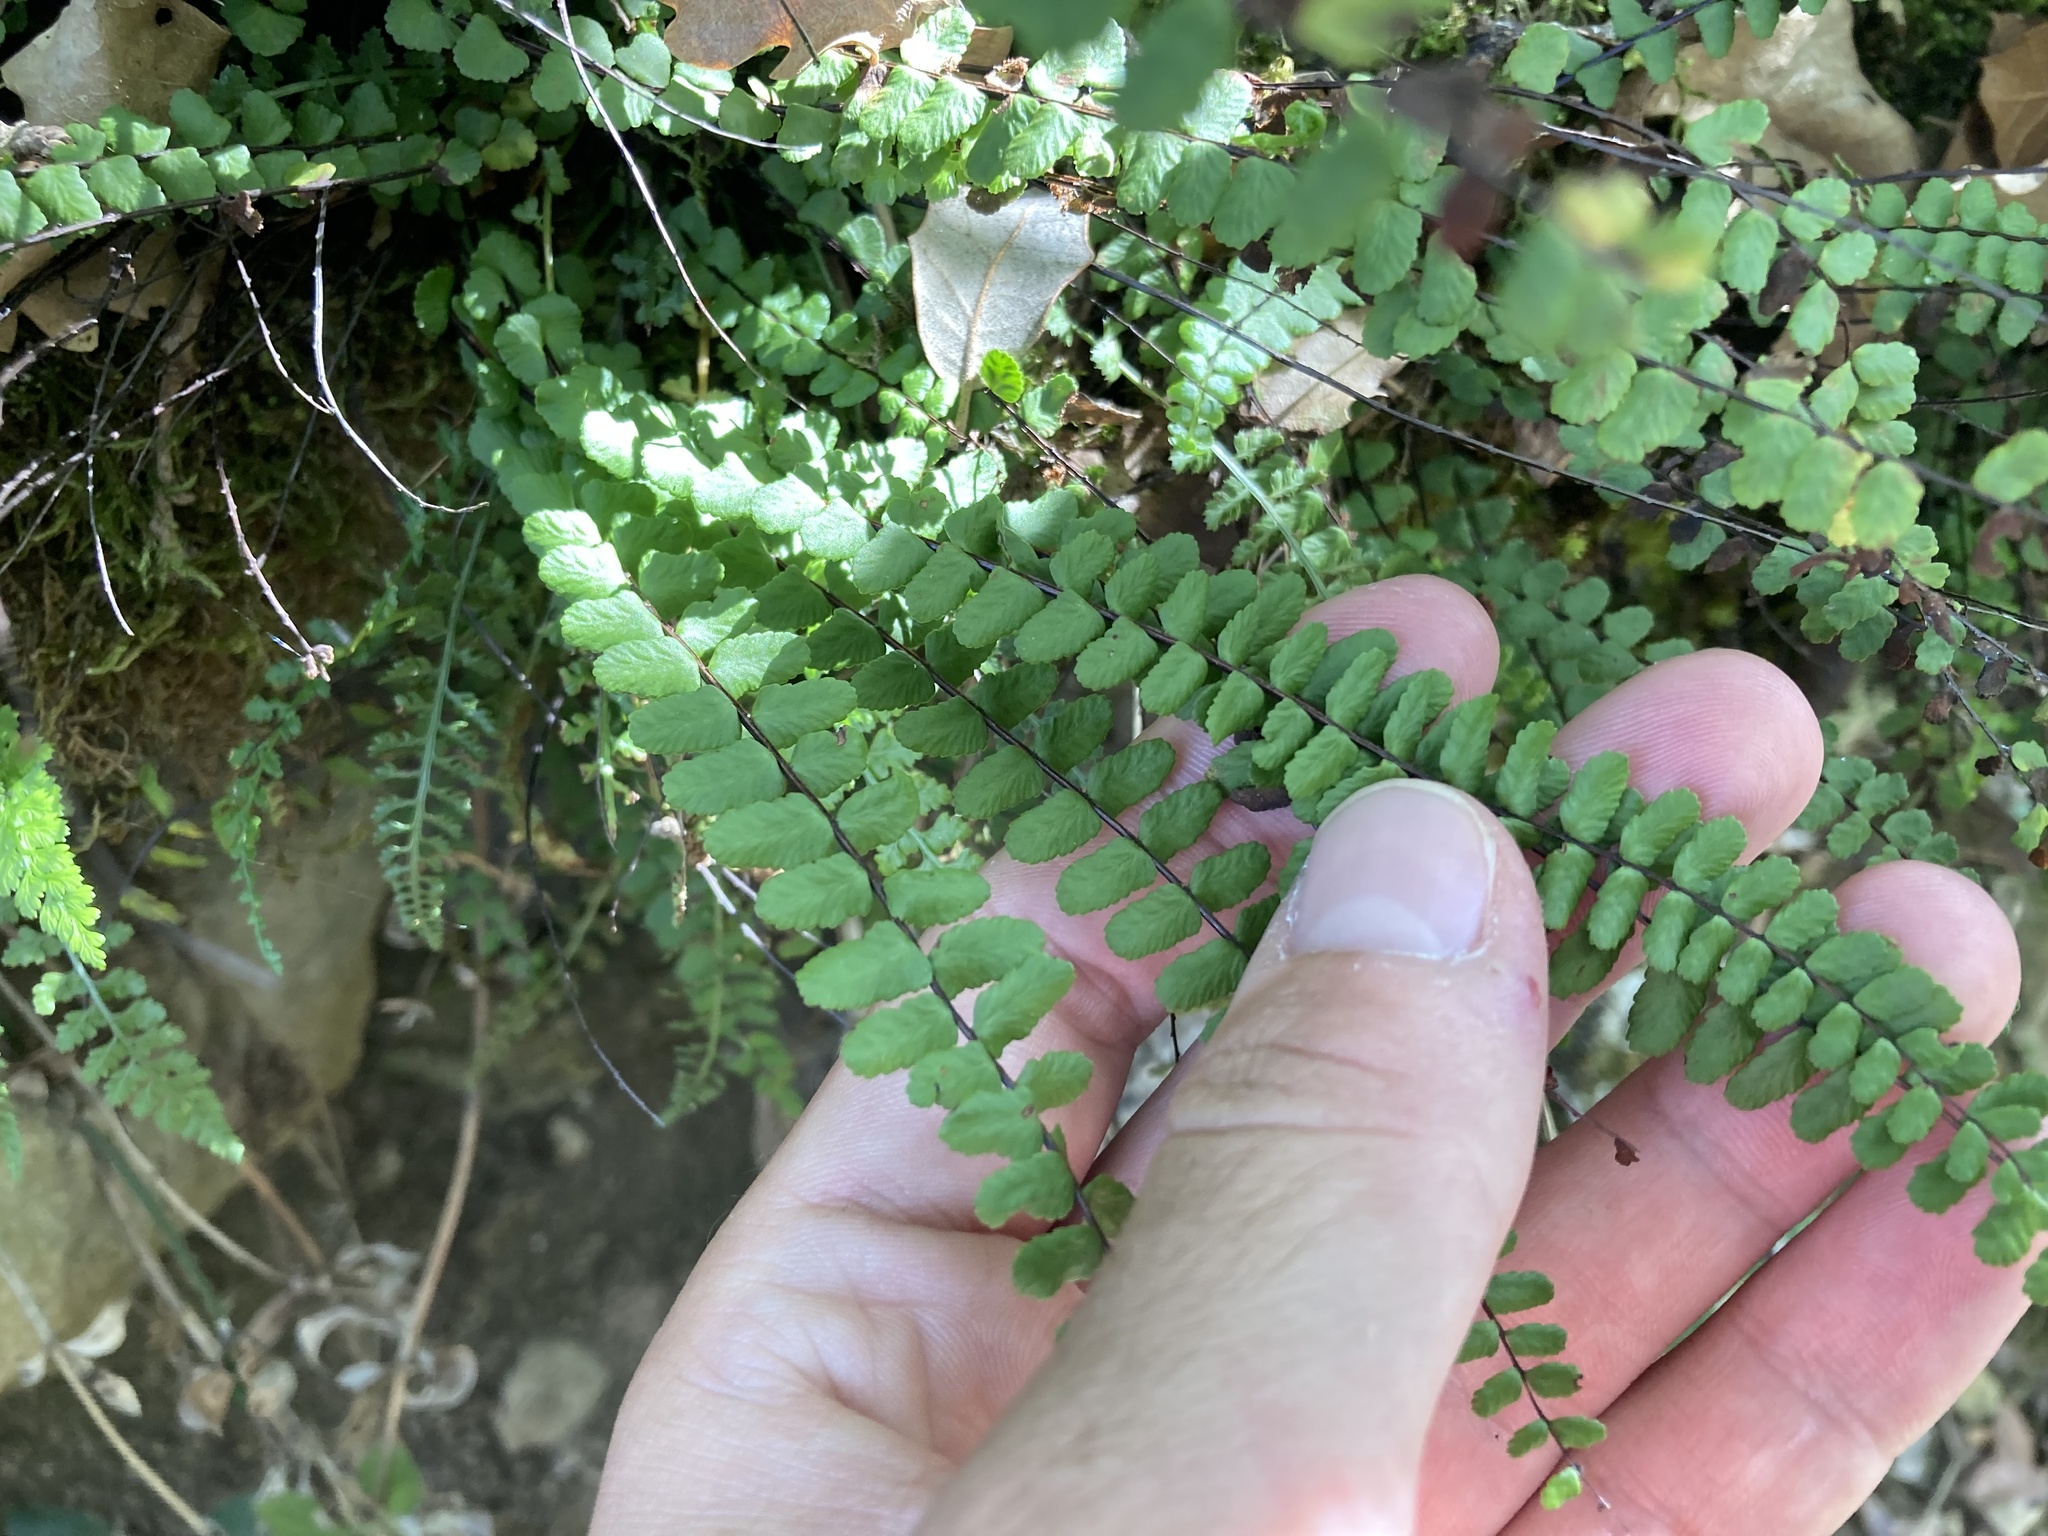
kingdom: Plantae
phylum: Tracheophyta
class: Polypodiopsida
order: Polypodiales
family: Aspleniaceae
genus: Asplenium
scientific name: Asplenium trichomanes
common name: Maidenhair spleenwort
